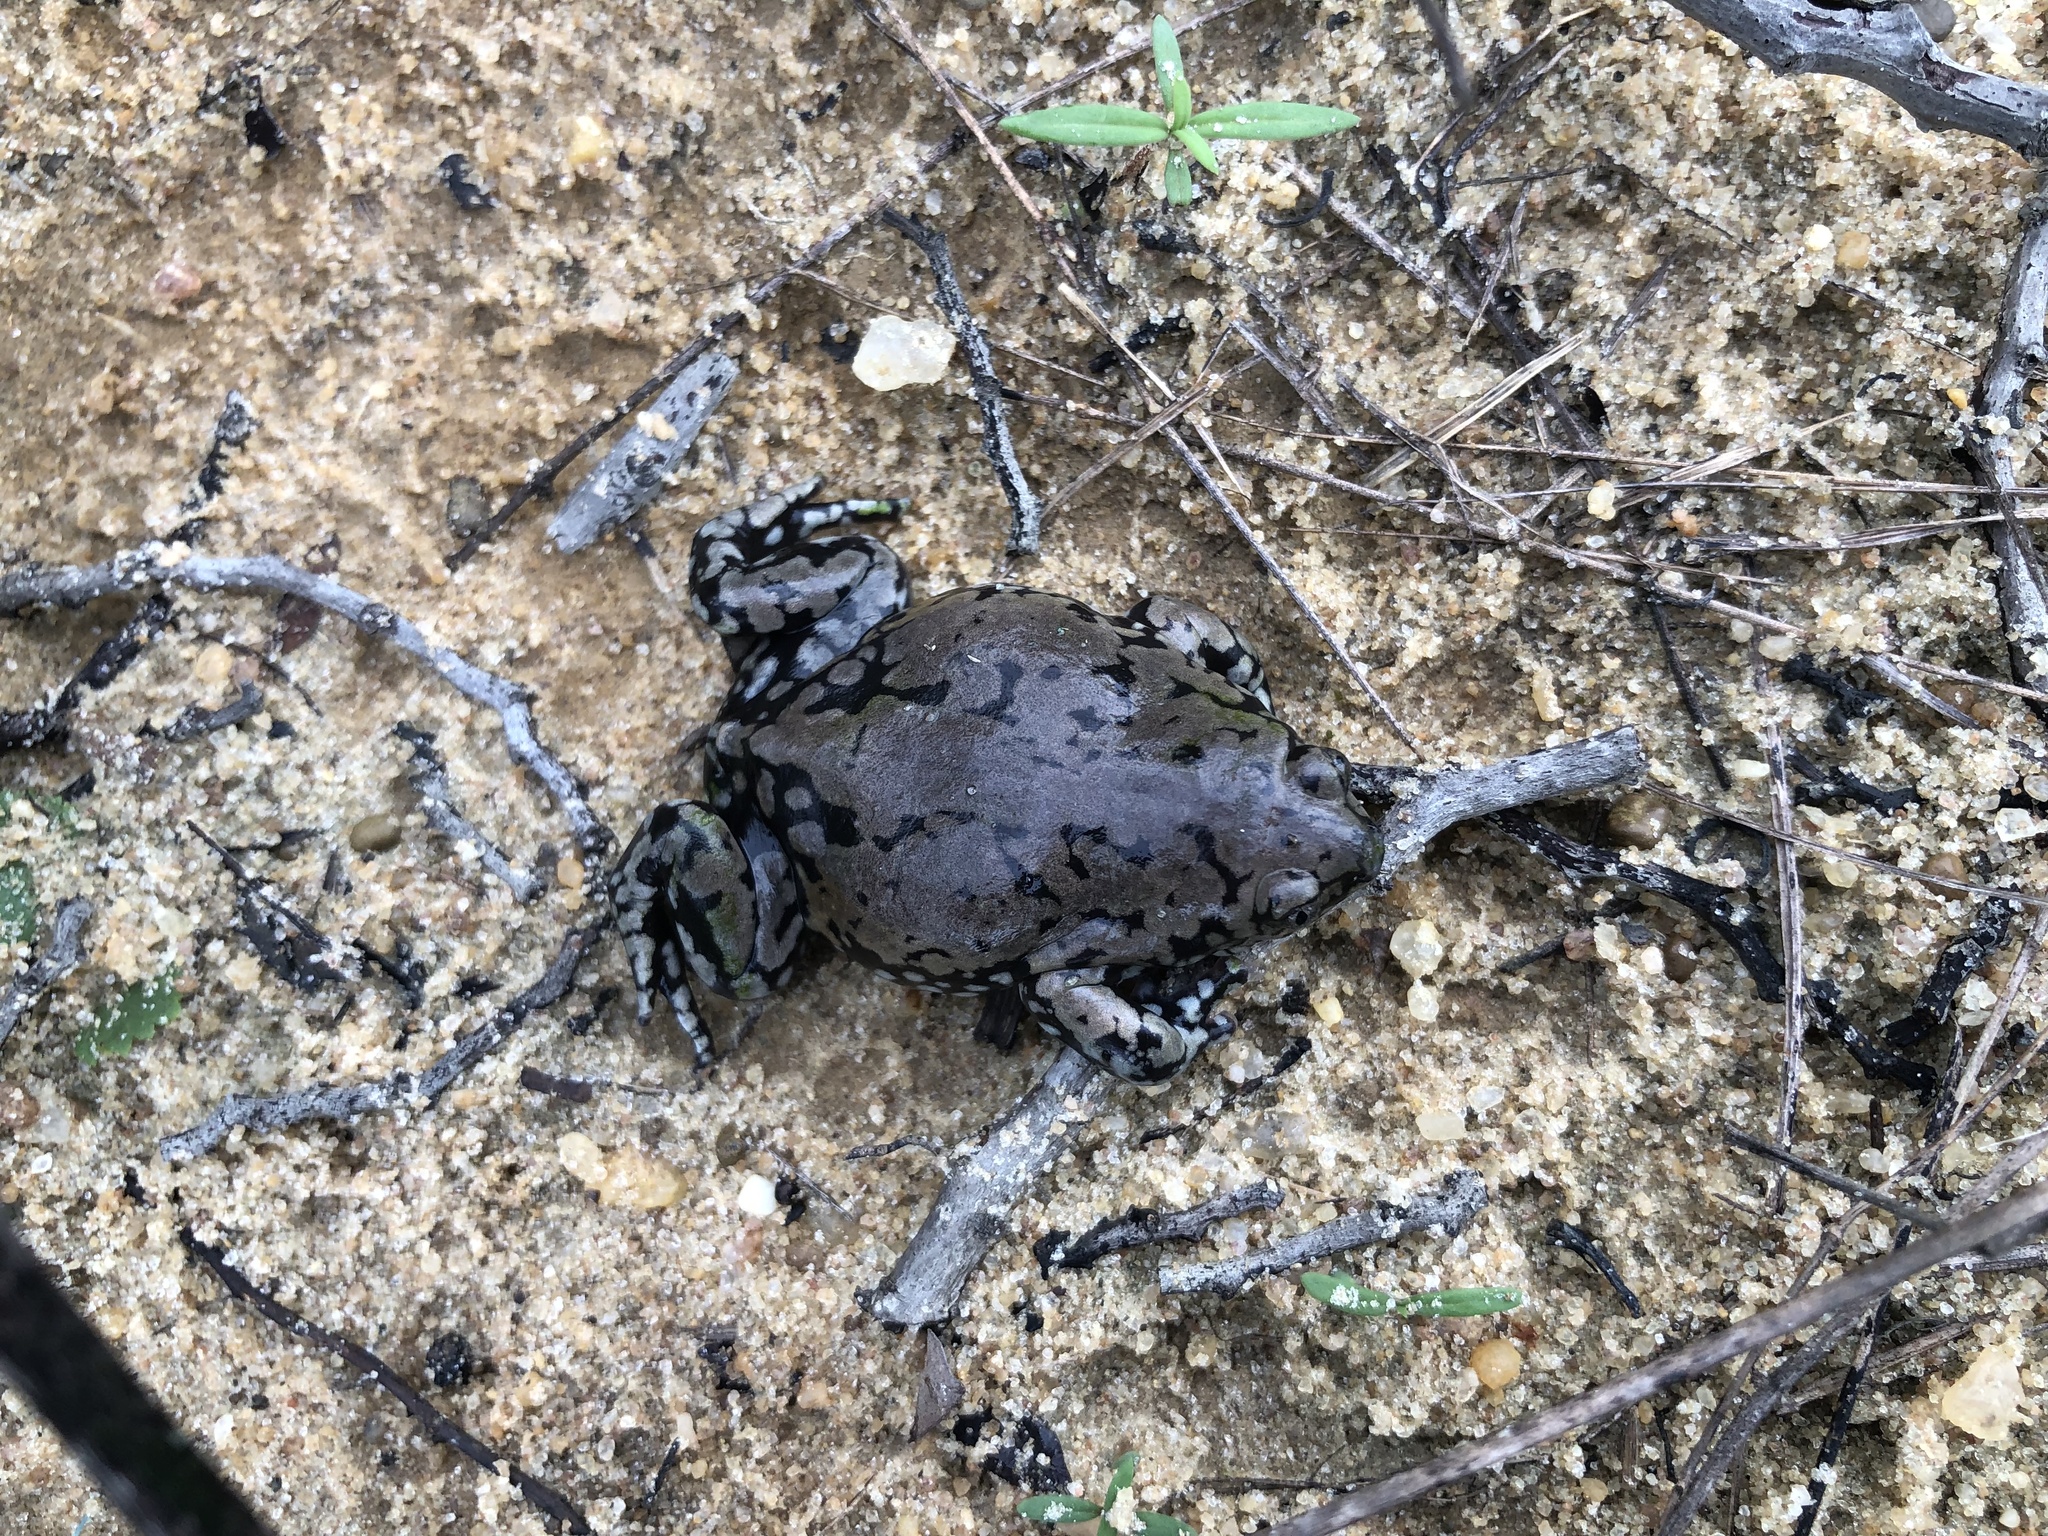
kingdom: Animalia
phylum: Chordata
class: Amphibia
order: Anura
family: Microhylidae
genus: Dermatonotus
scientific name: Dermatonotus muelleri
